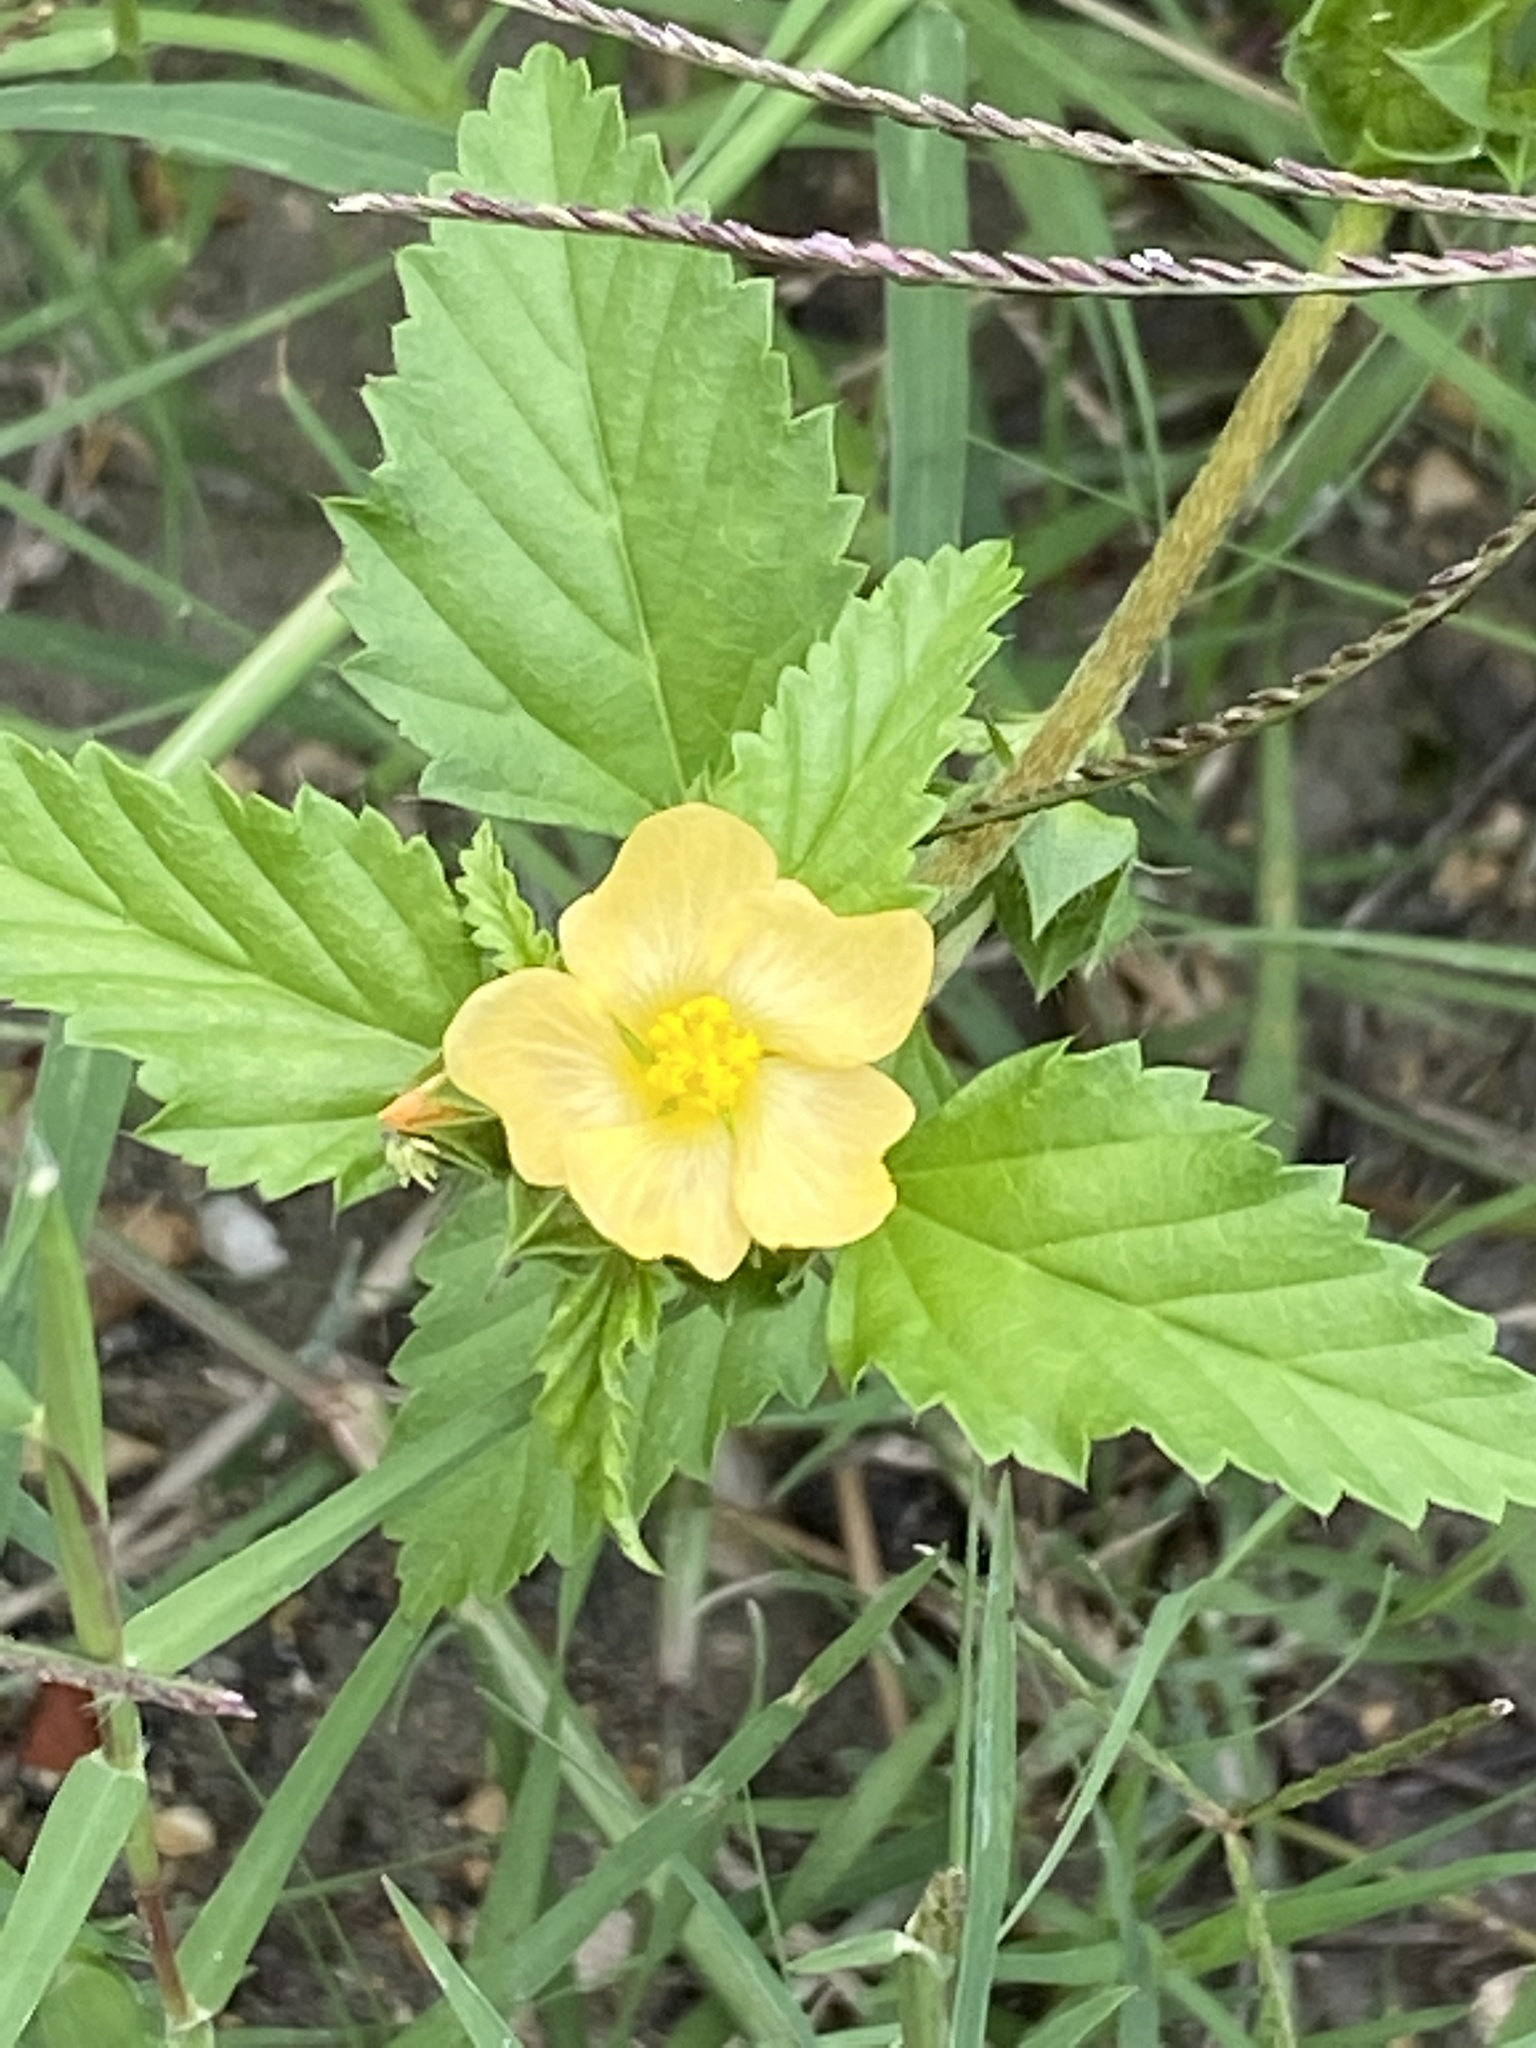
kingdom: Plantae
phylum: Tracheophyta
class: Magnoliopsida
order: Malvales
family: Malvaceae
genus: Malvastrum
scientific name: Malvastrum coromandelianum
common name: Threelobe false mallow
